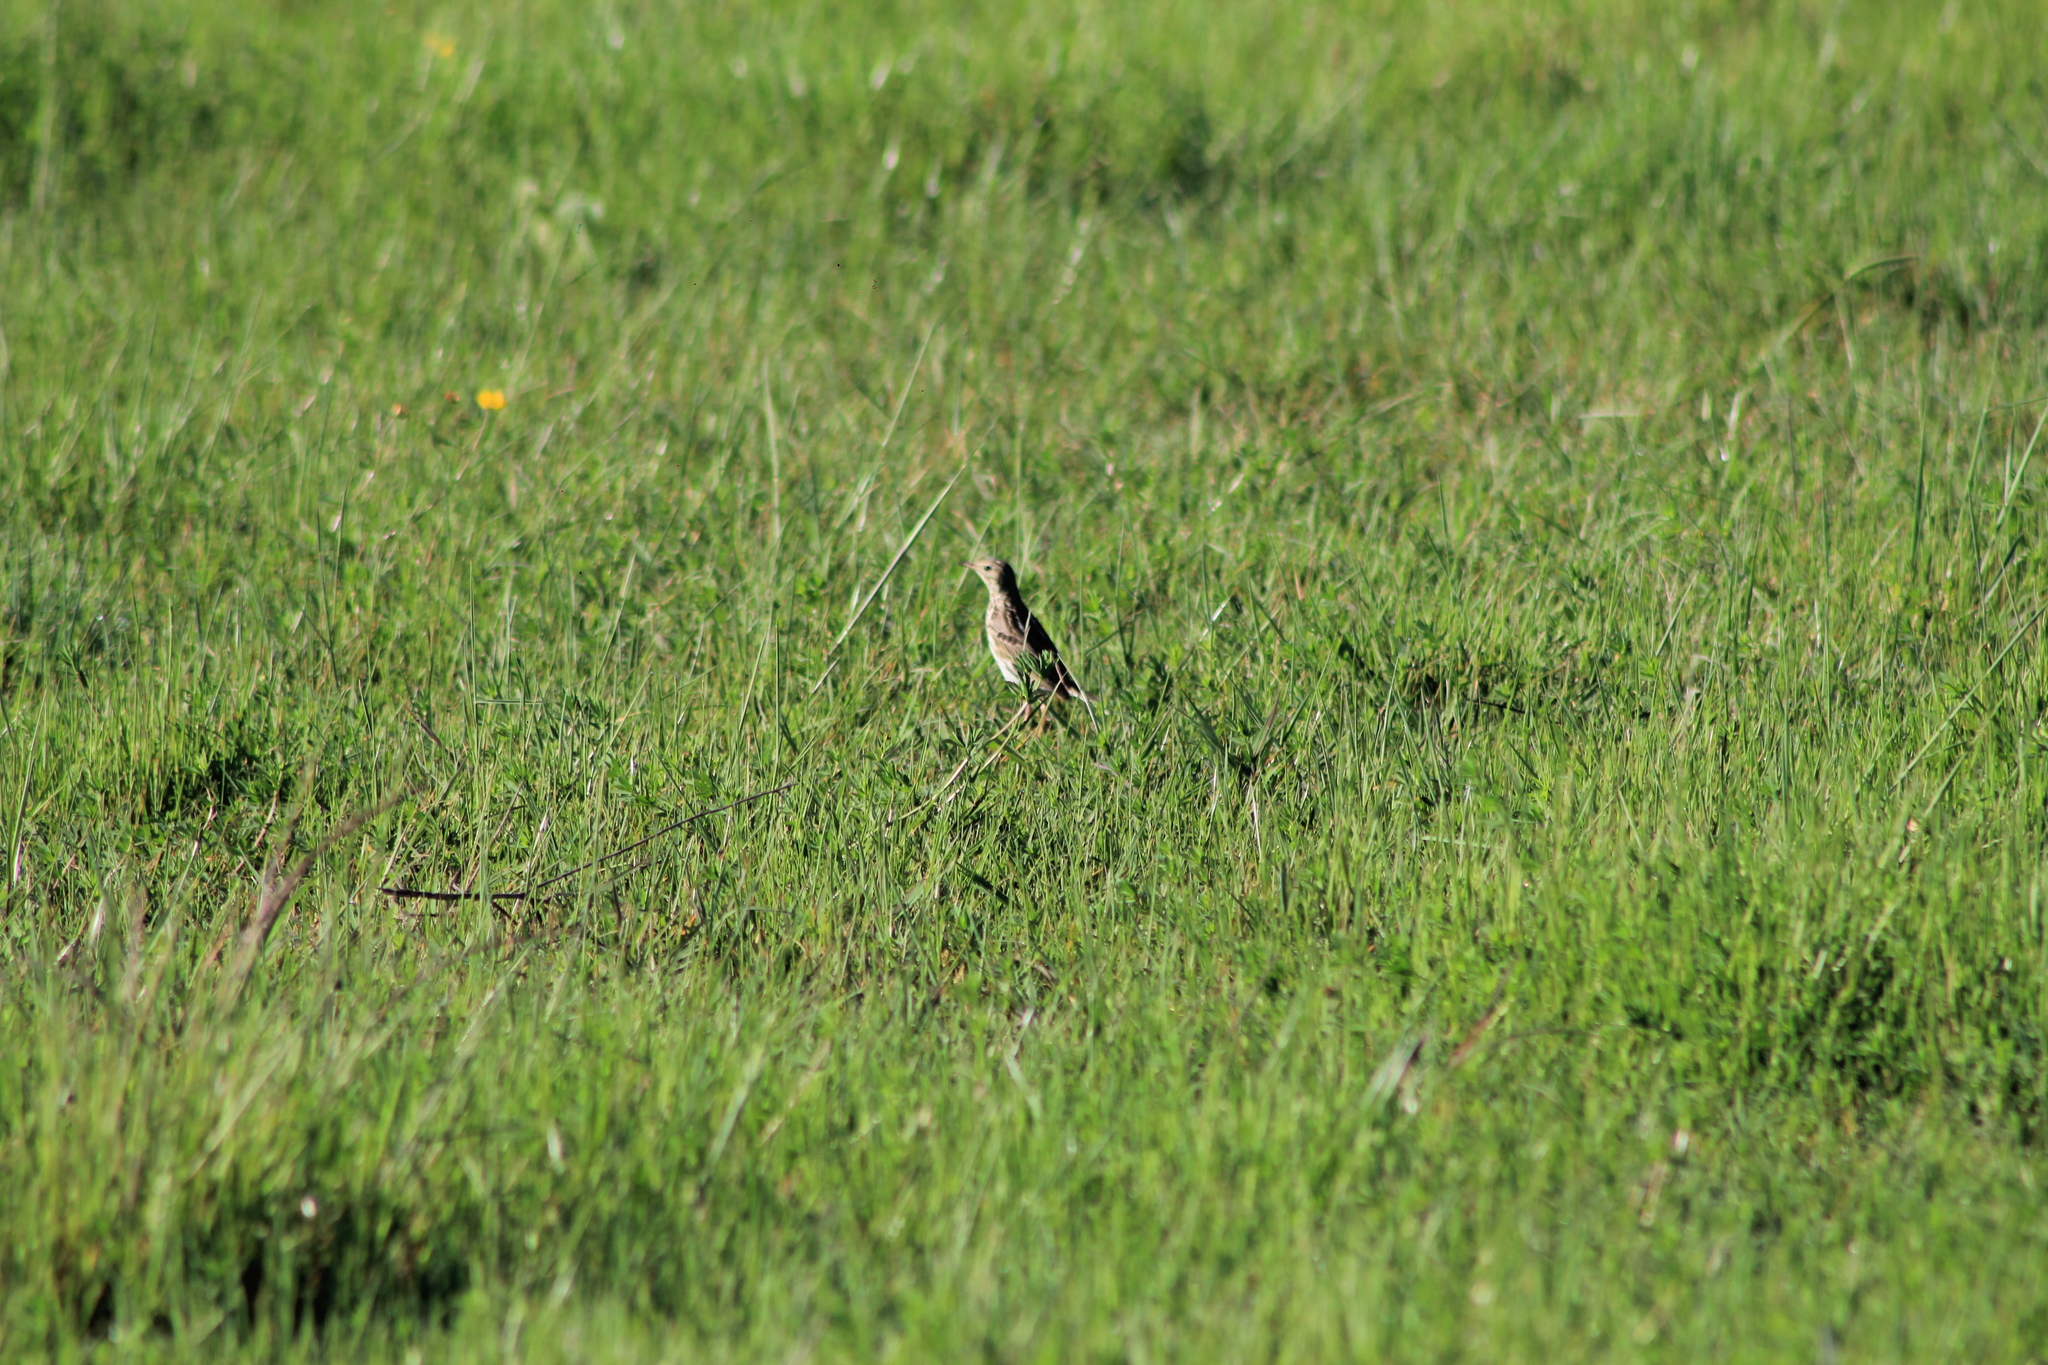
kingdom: Animalia
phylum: Chordata
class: Aves
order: Passeriformes
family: Motacillidae
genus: Anthus
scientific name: Anthus correndera
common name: Correndera pipit
